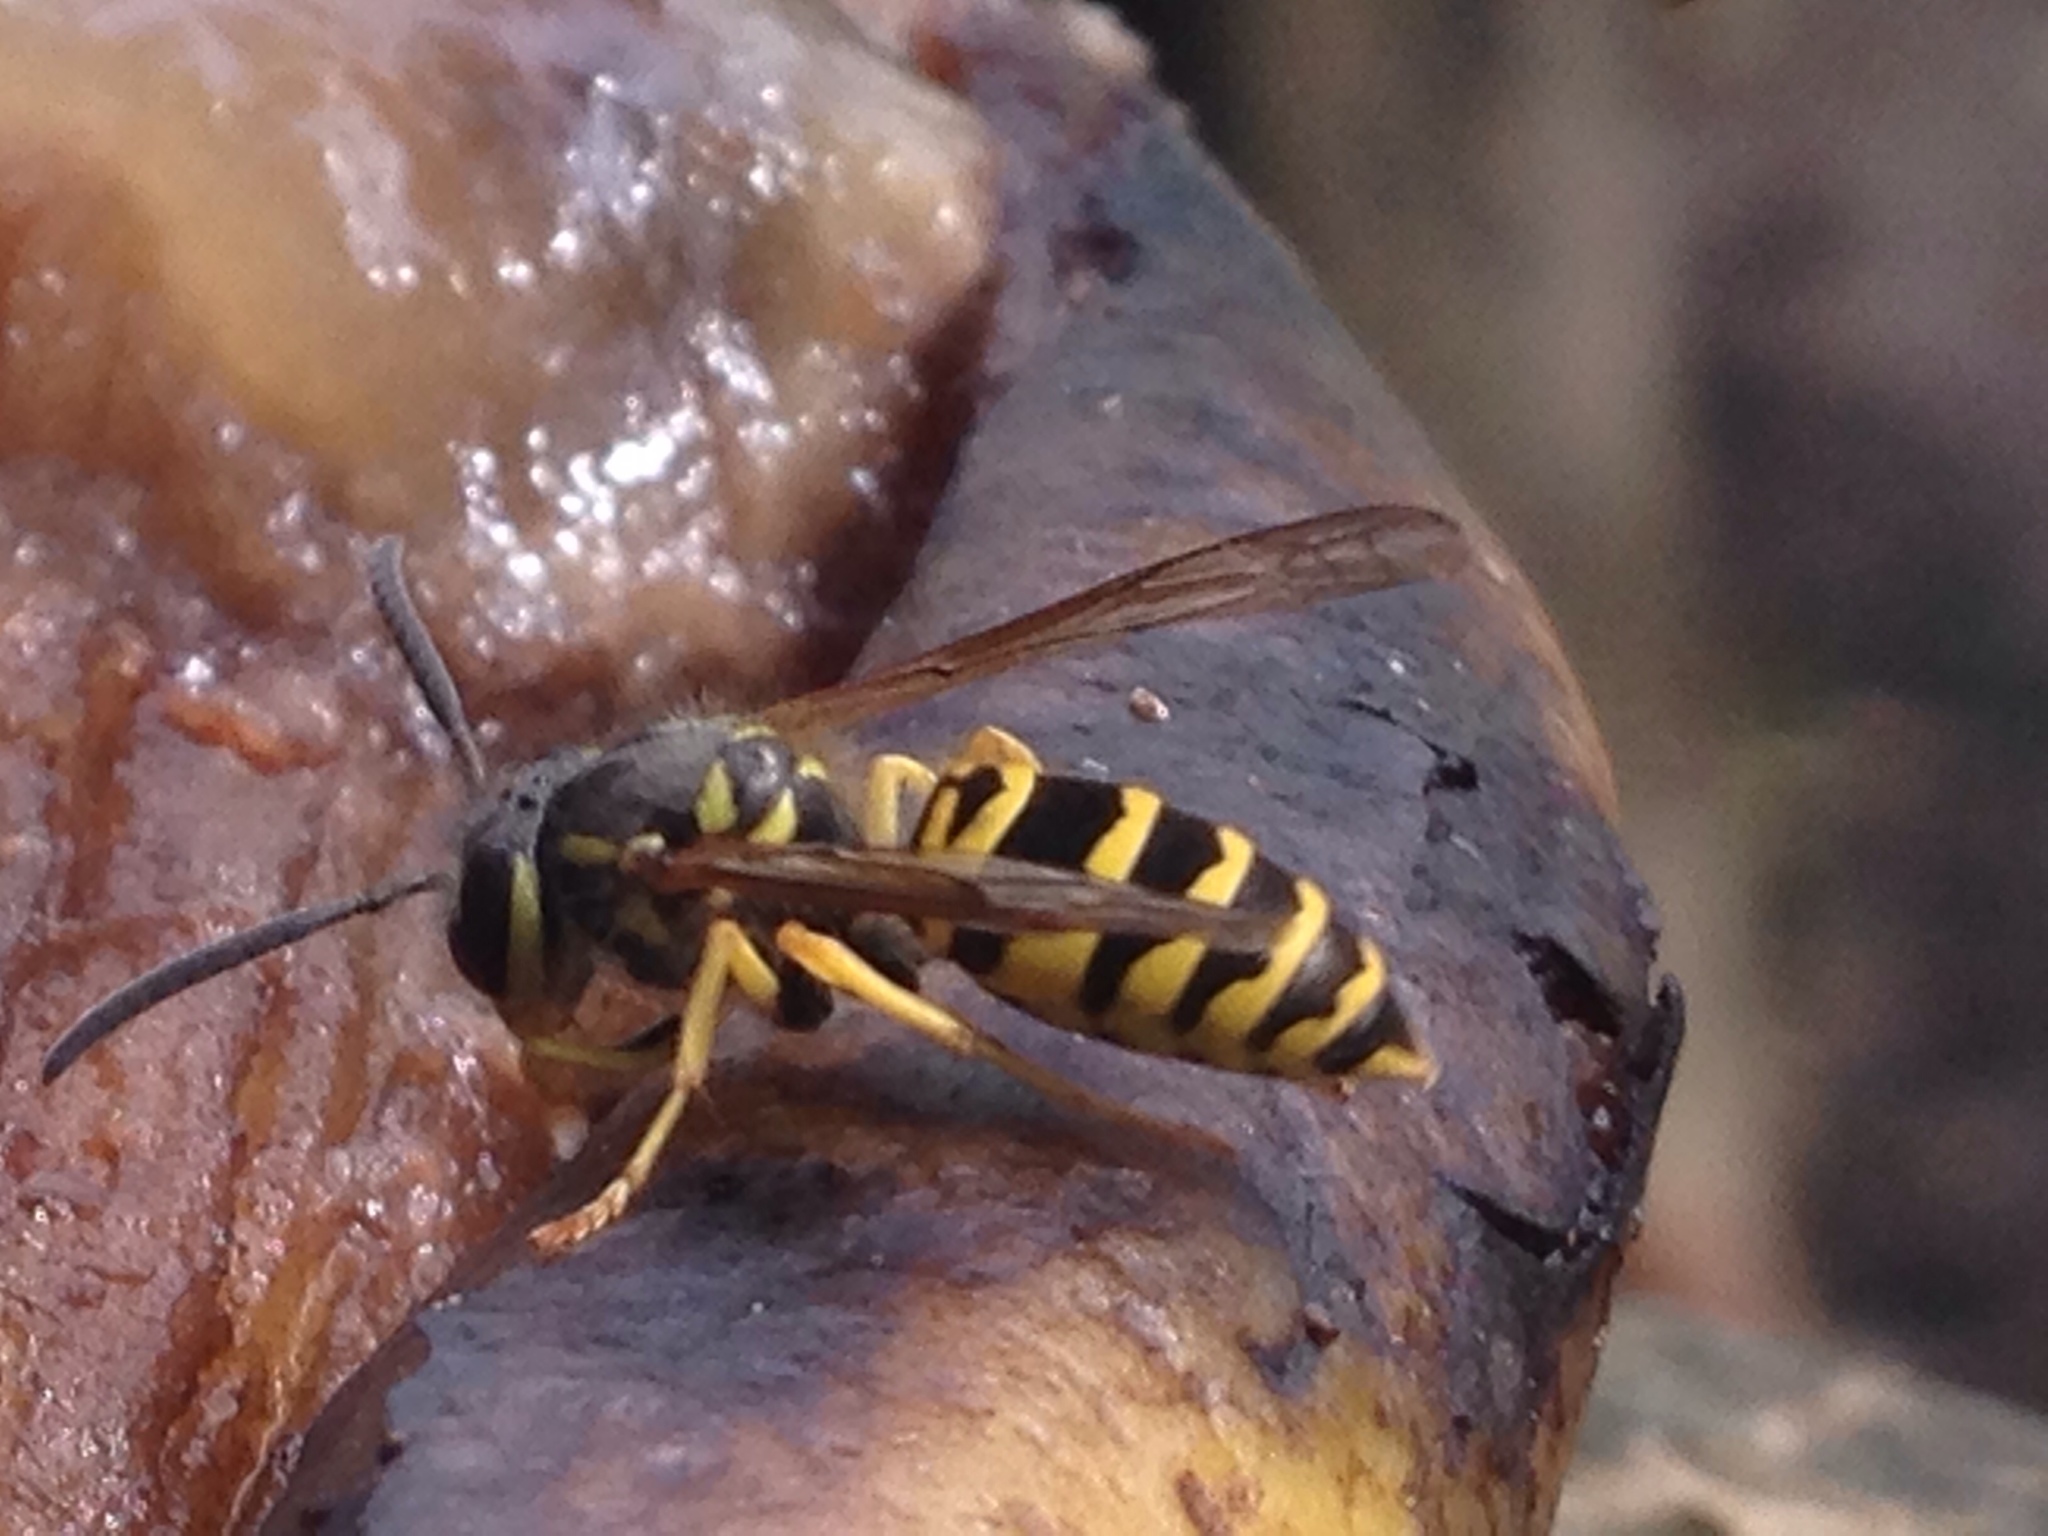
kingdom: Animalia
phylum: Arthropoda
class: Insecta
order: Hymenoptera
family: Vespidae
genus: Vespula
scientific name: Vespula maculifrons
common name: Eastern yellowjacket
